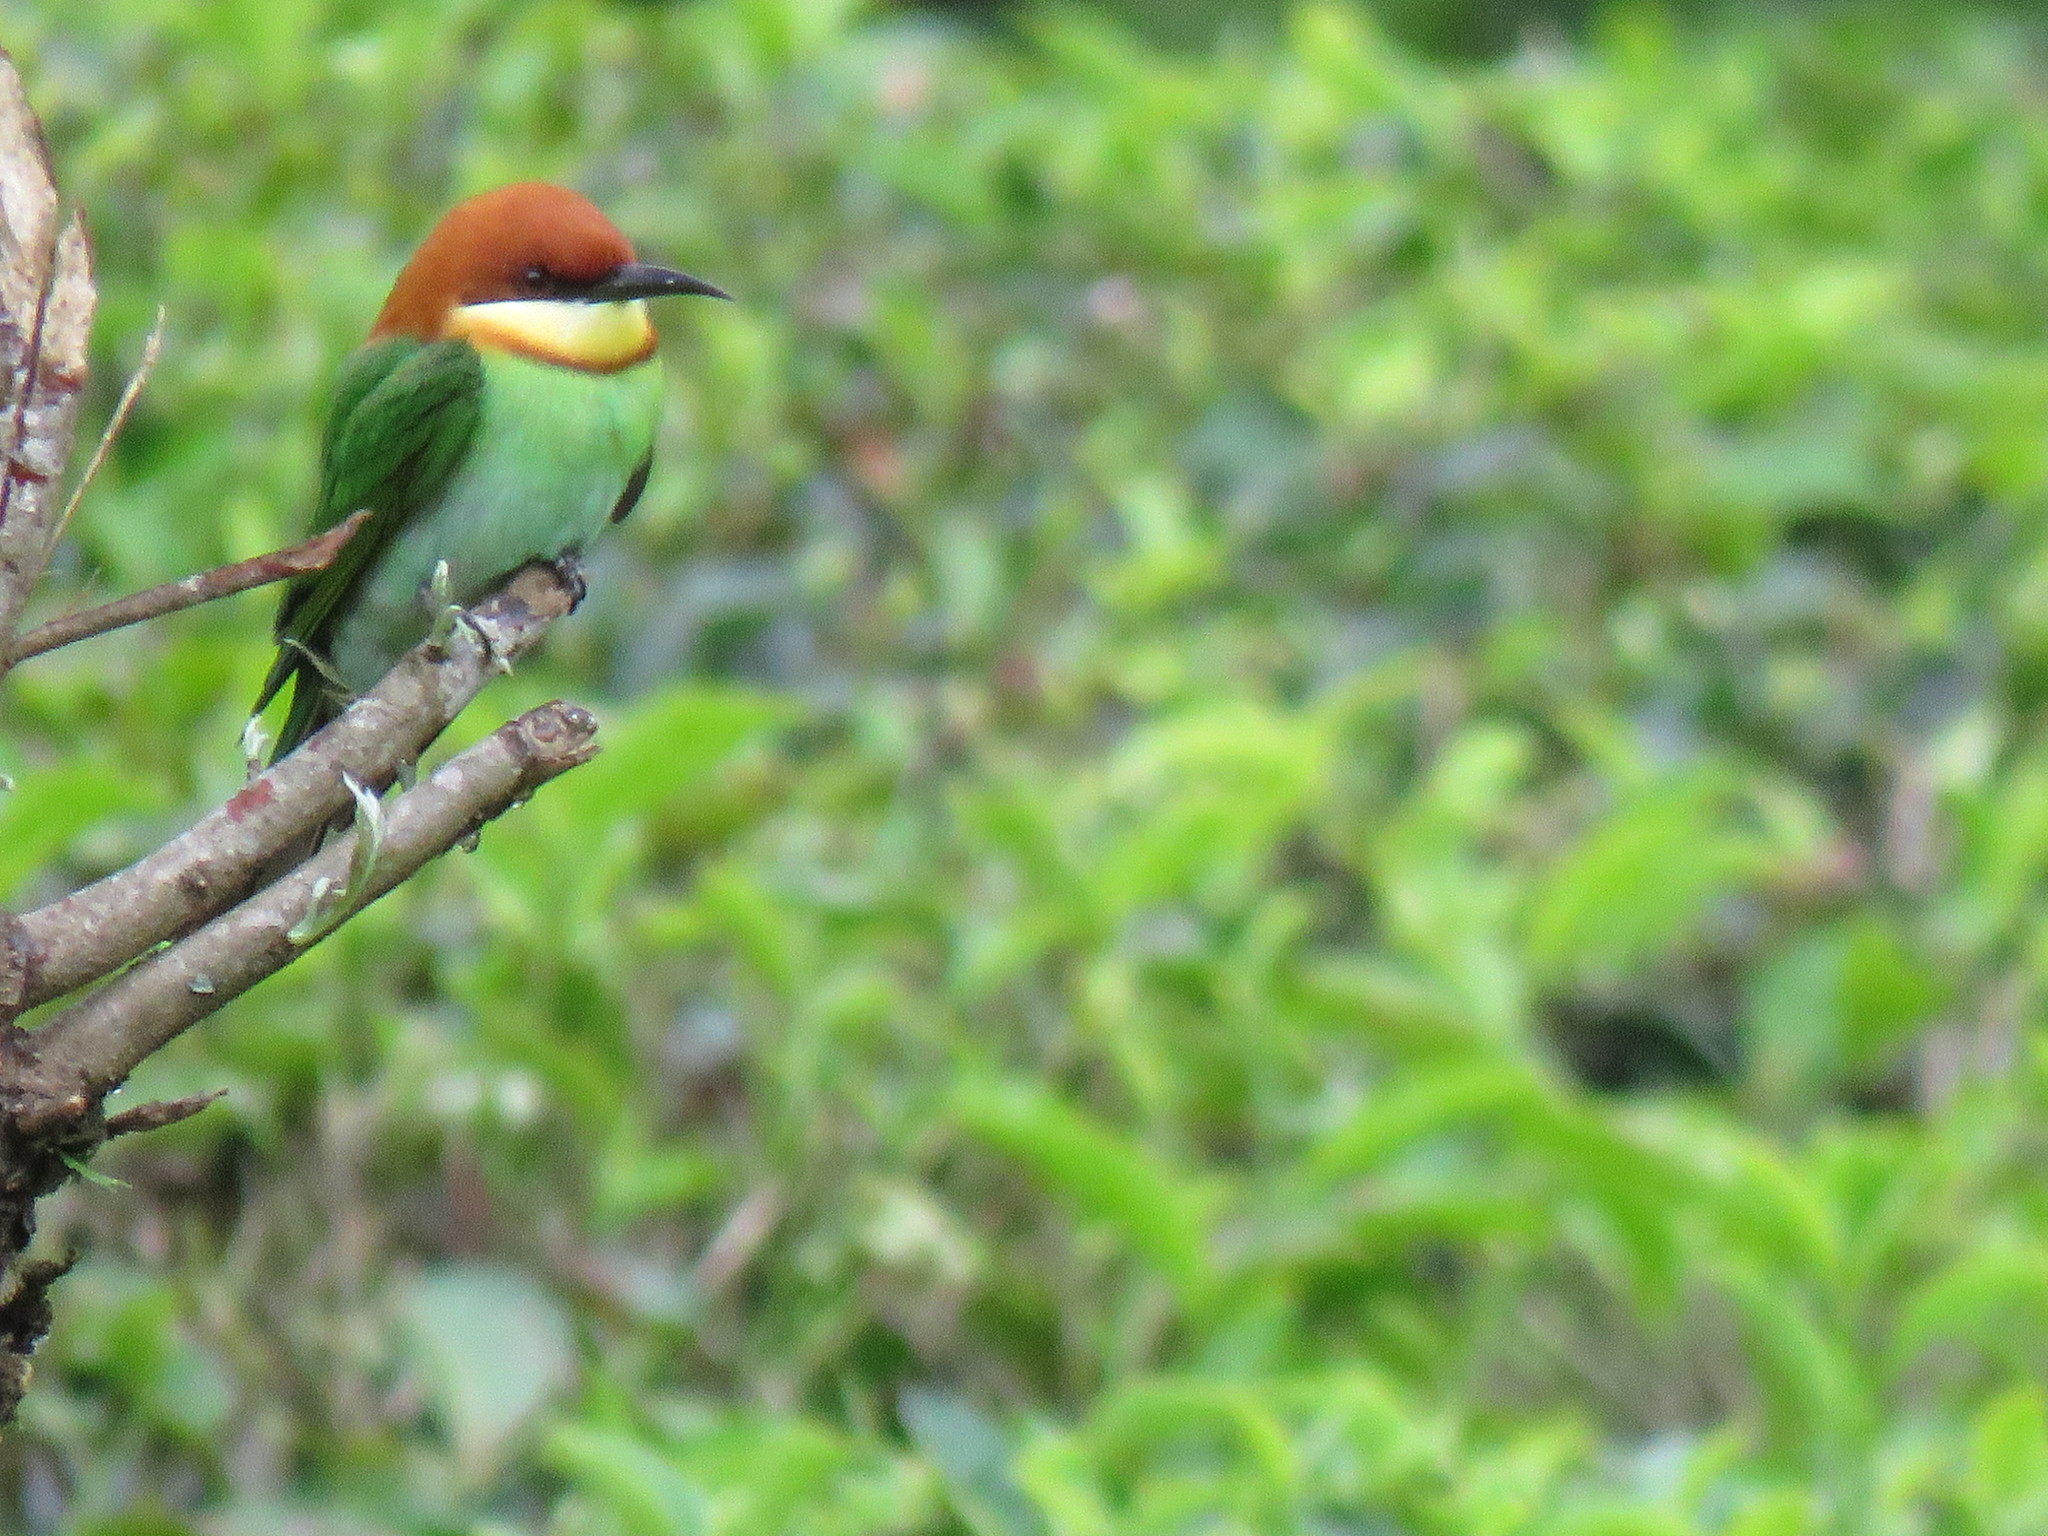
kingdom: Animalia
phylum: Chordata
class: Aves
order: Coraciiformes
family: Meropidae
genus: Merops
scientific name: Merops leschenaulti
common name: Chestnut-headed bee-eater
